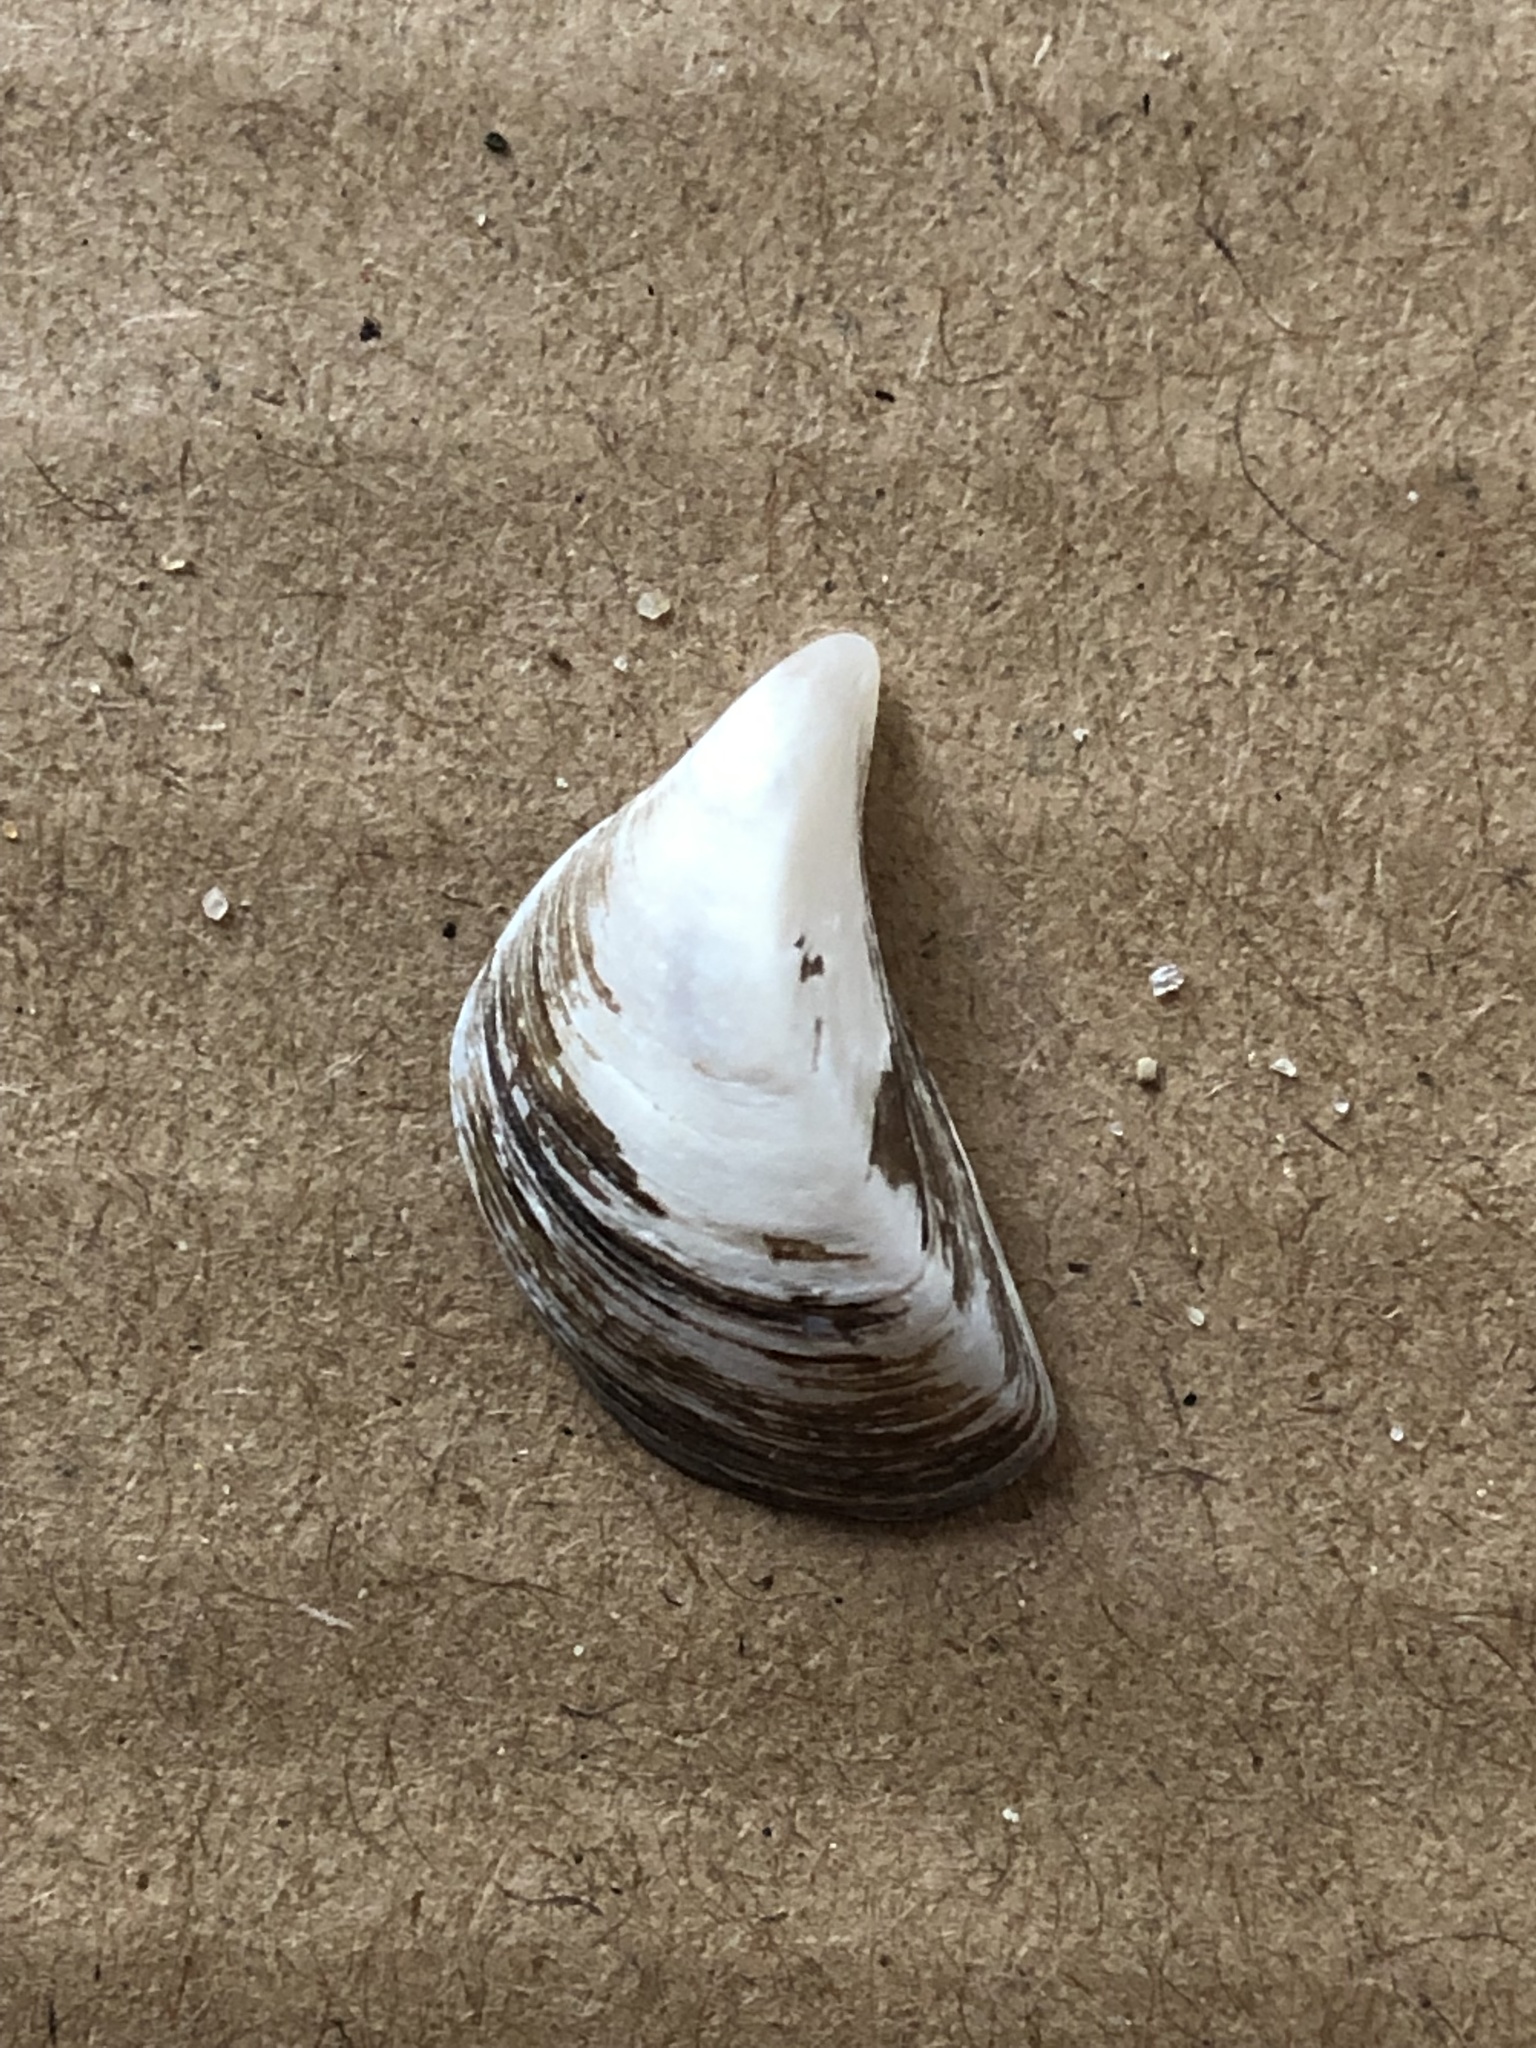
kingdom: Animalia
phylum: Mollusca
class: Bivalvia
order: Myida
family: Dreissenidae
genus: Dreissena
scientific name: Dreissena bugensis
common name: Quagga mussel
